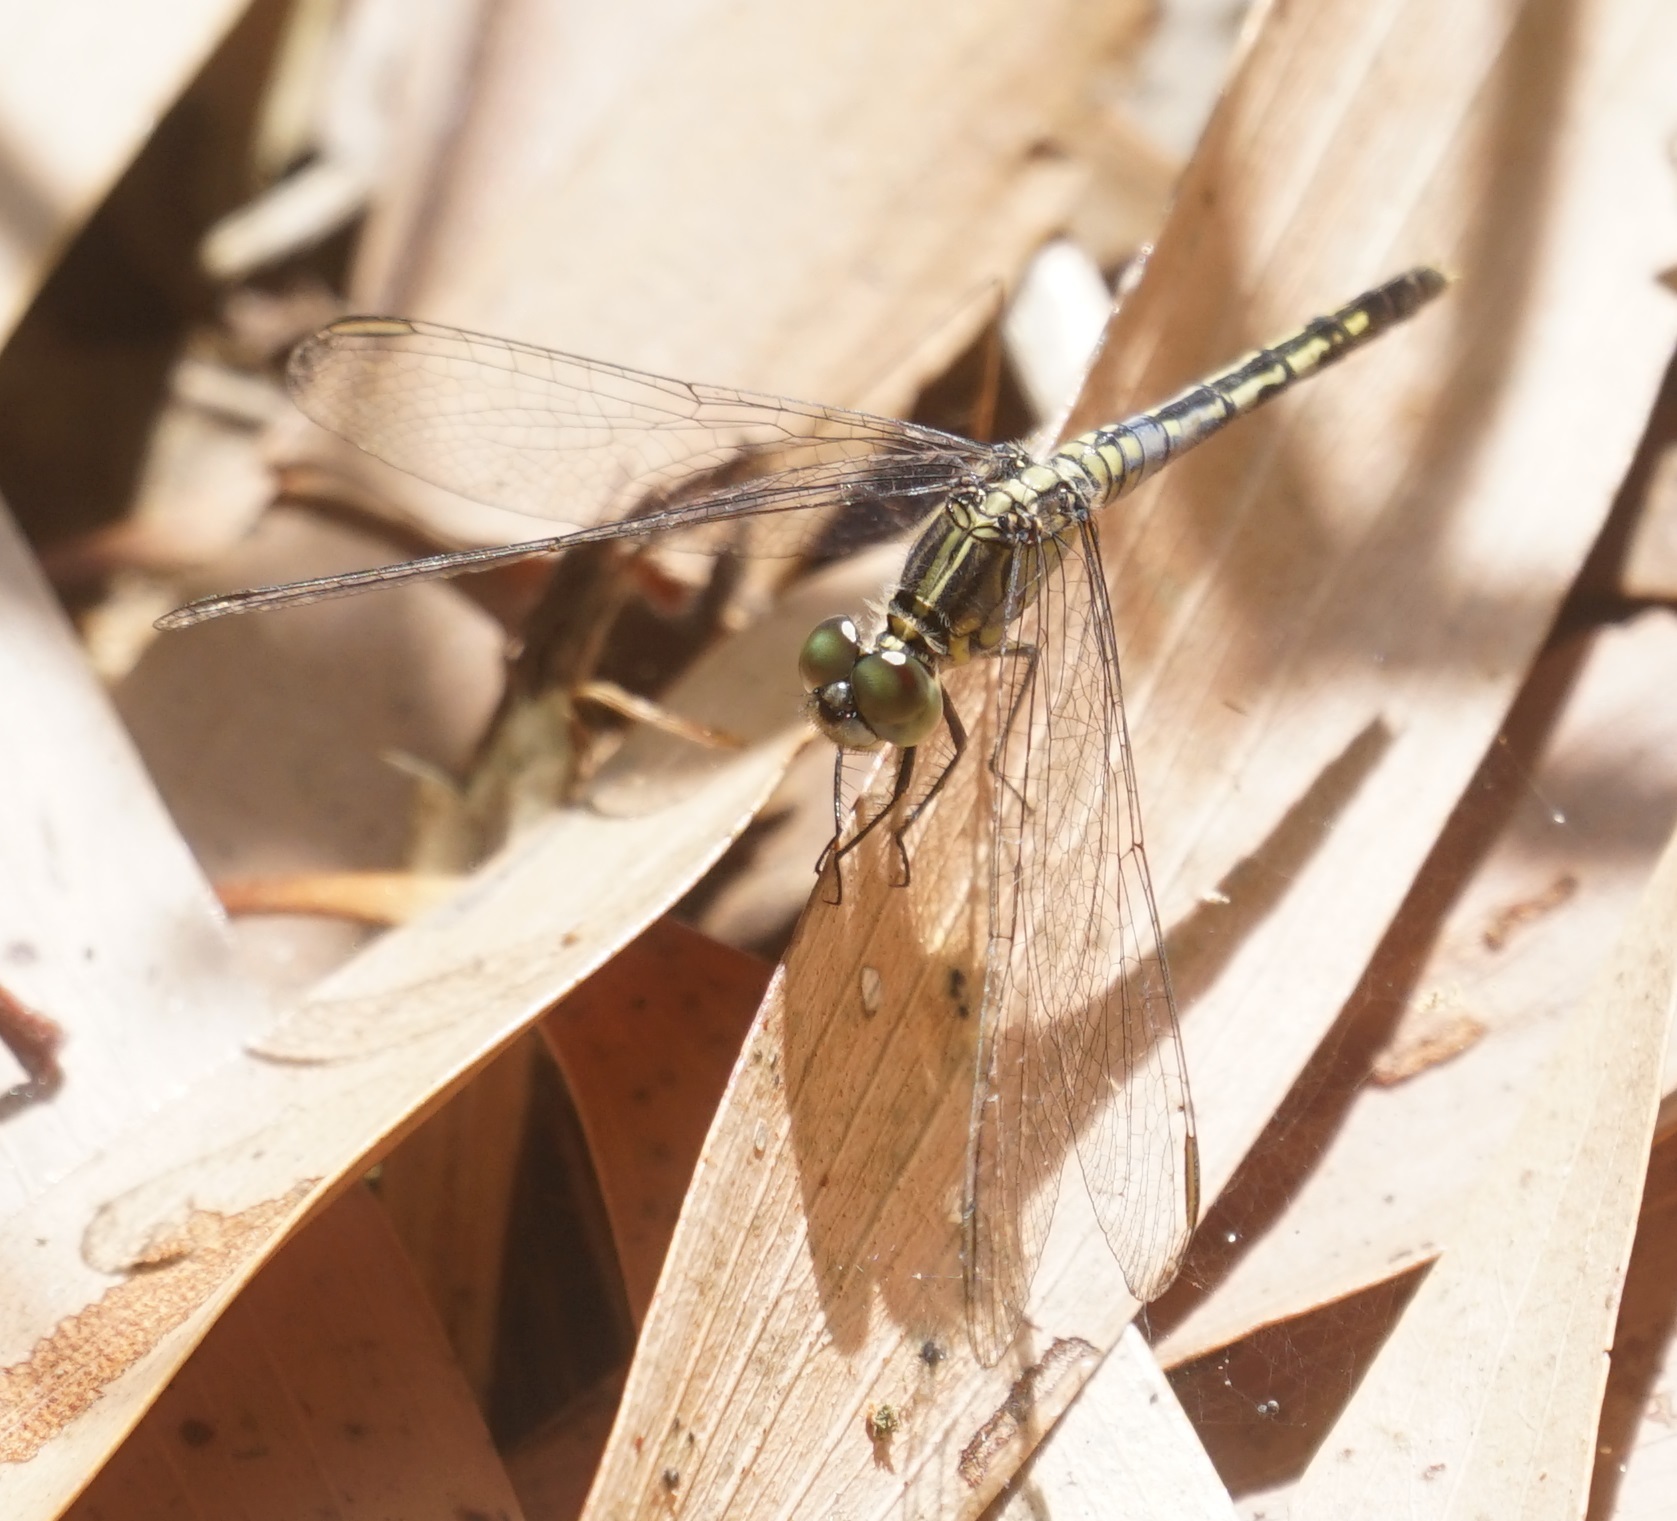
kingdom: Animalia
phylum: Arthropoda
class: Insecta
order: Odonata
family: Libellulidae
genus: Diplacodes
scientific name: Diplacodes trivialis
